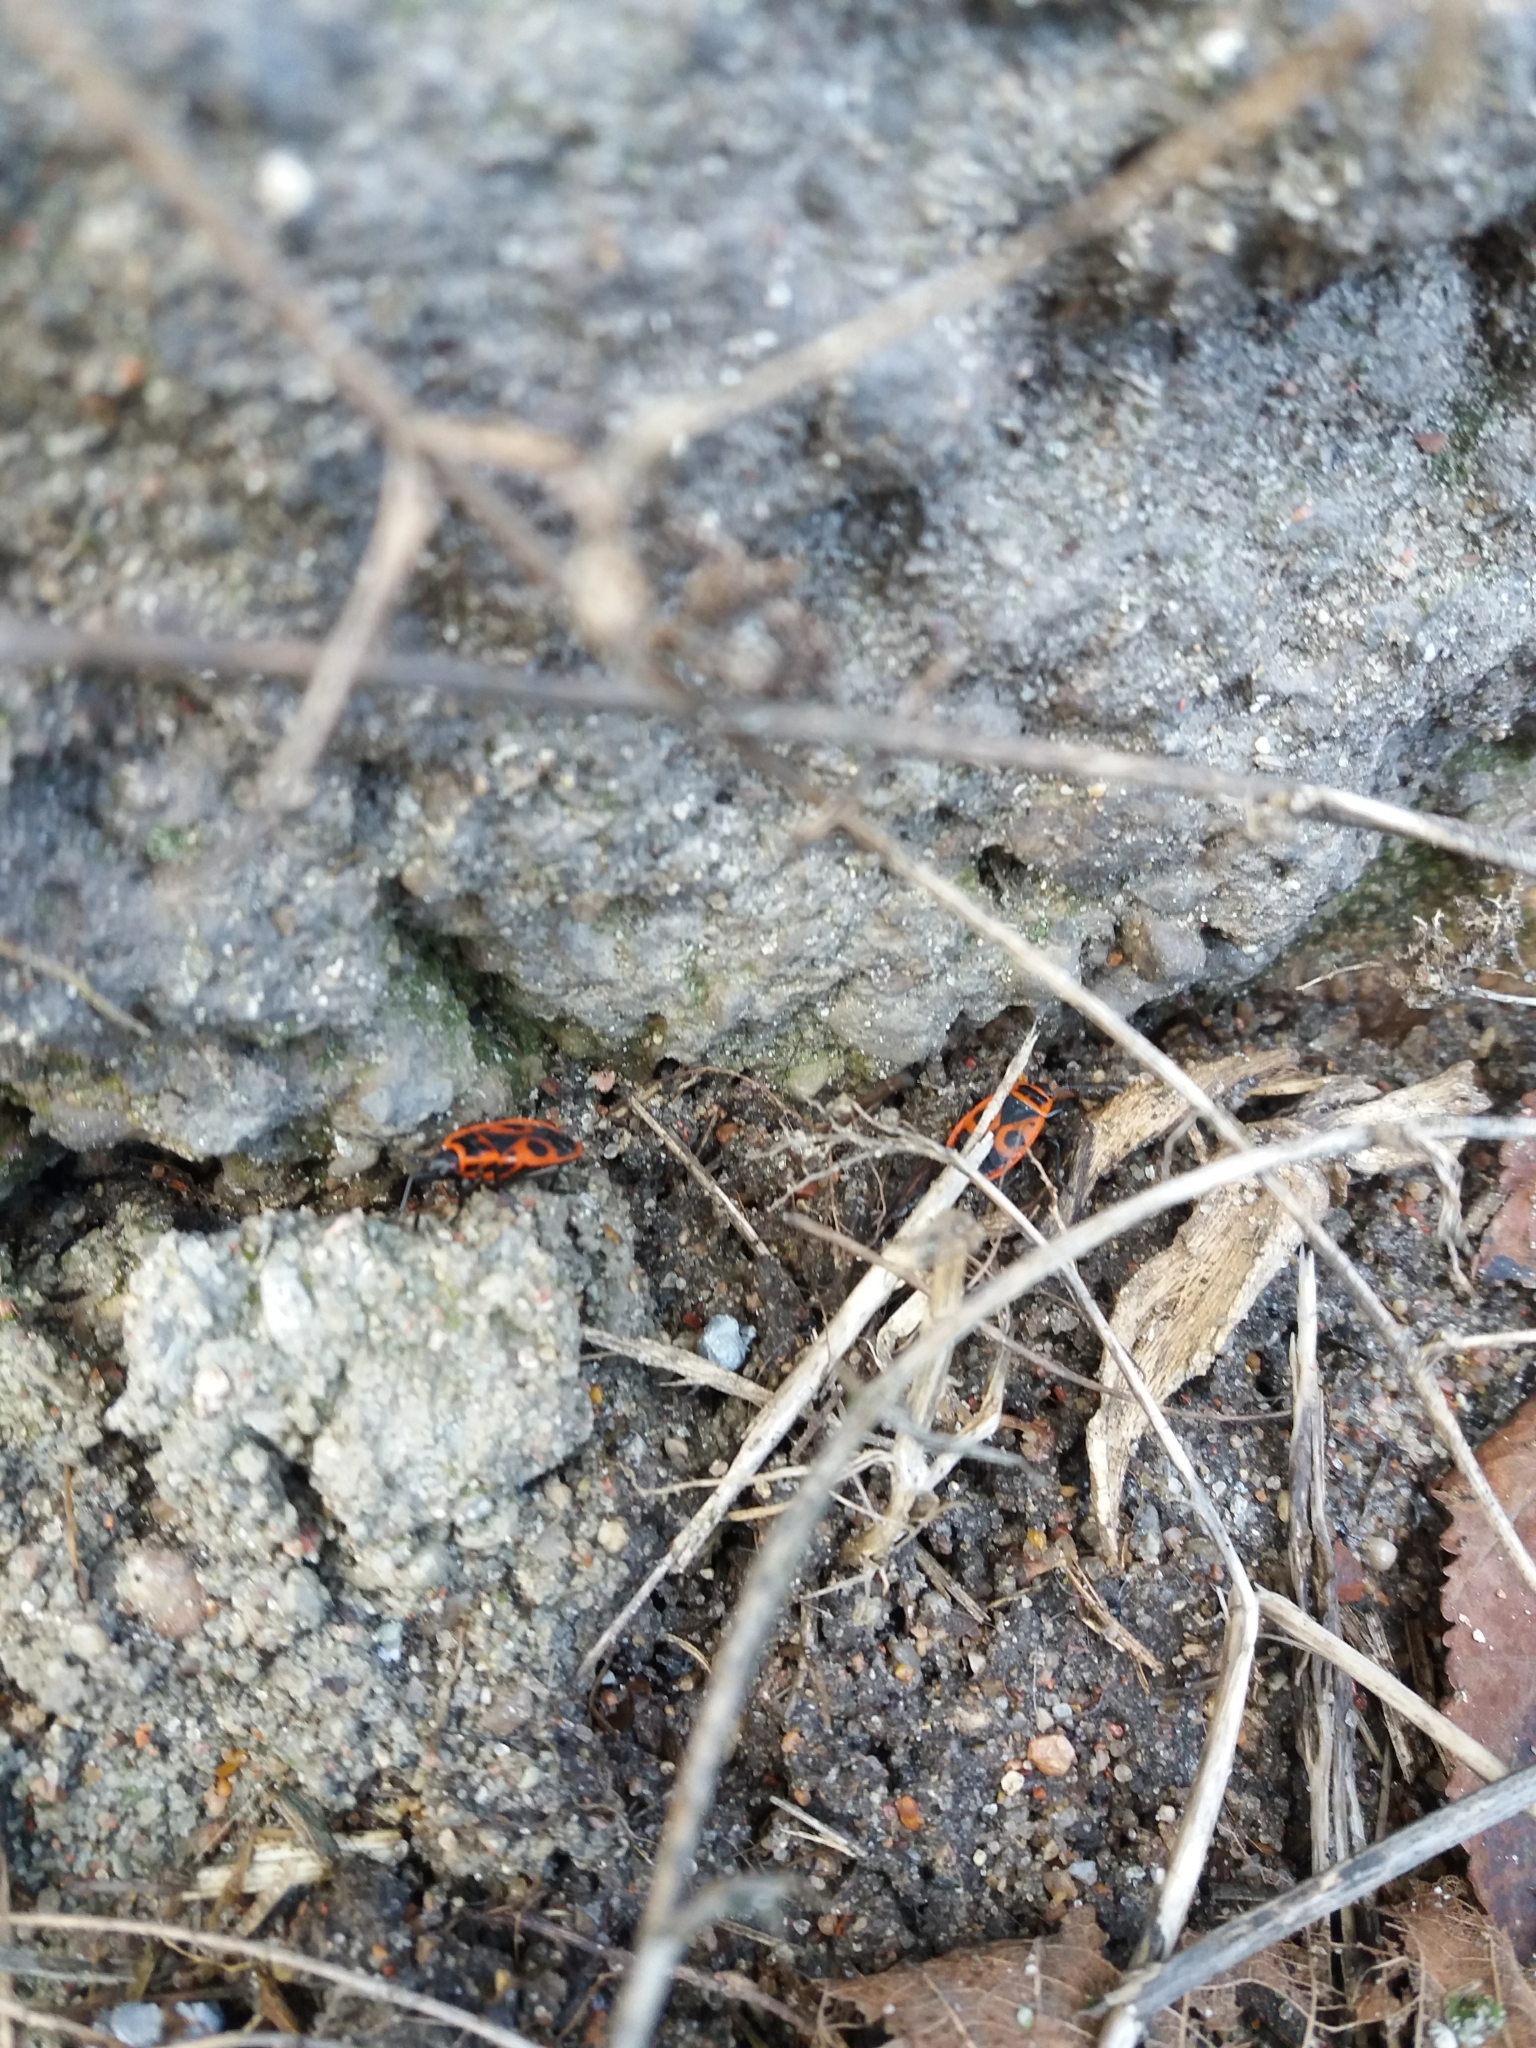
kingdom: Animalia
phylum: Arthropoda
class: Insecta
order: Hemiptera
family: Pyrrhocoridae
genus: Pyrrhocoris
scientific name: Pyrrhocoris apterus
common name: Firebug
